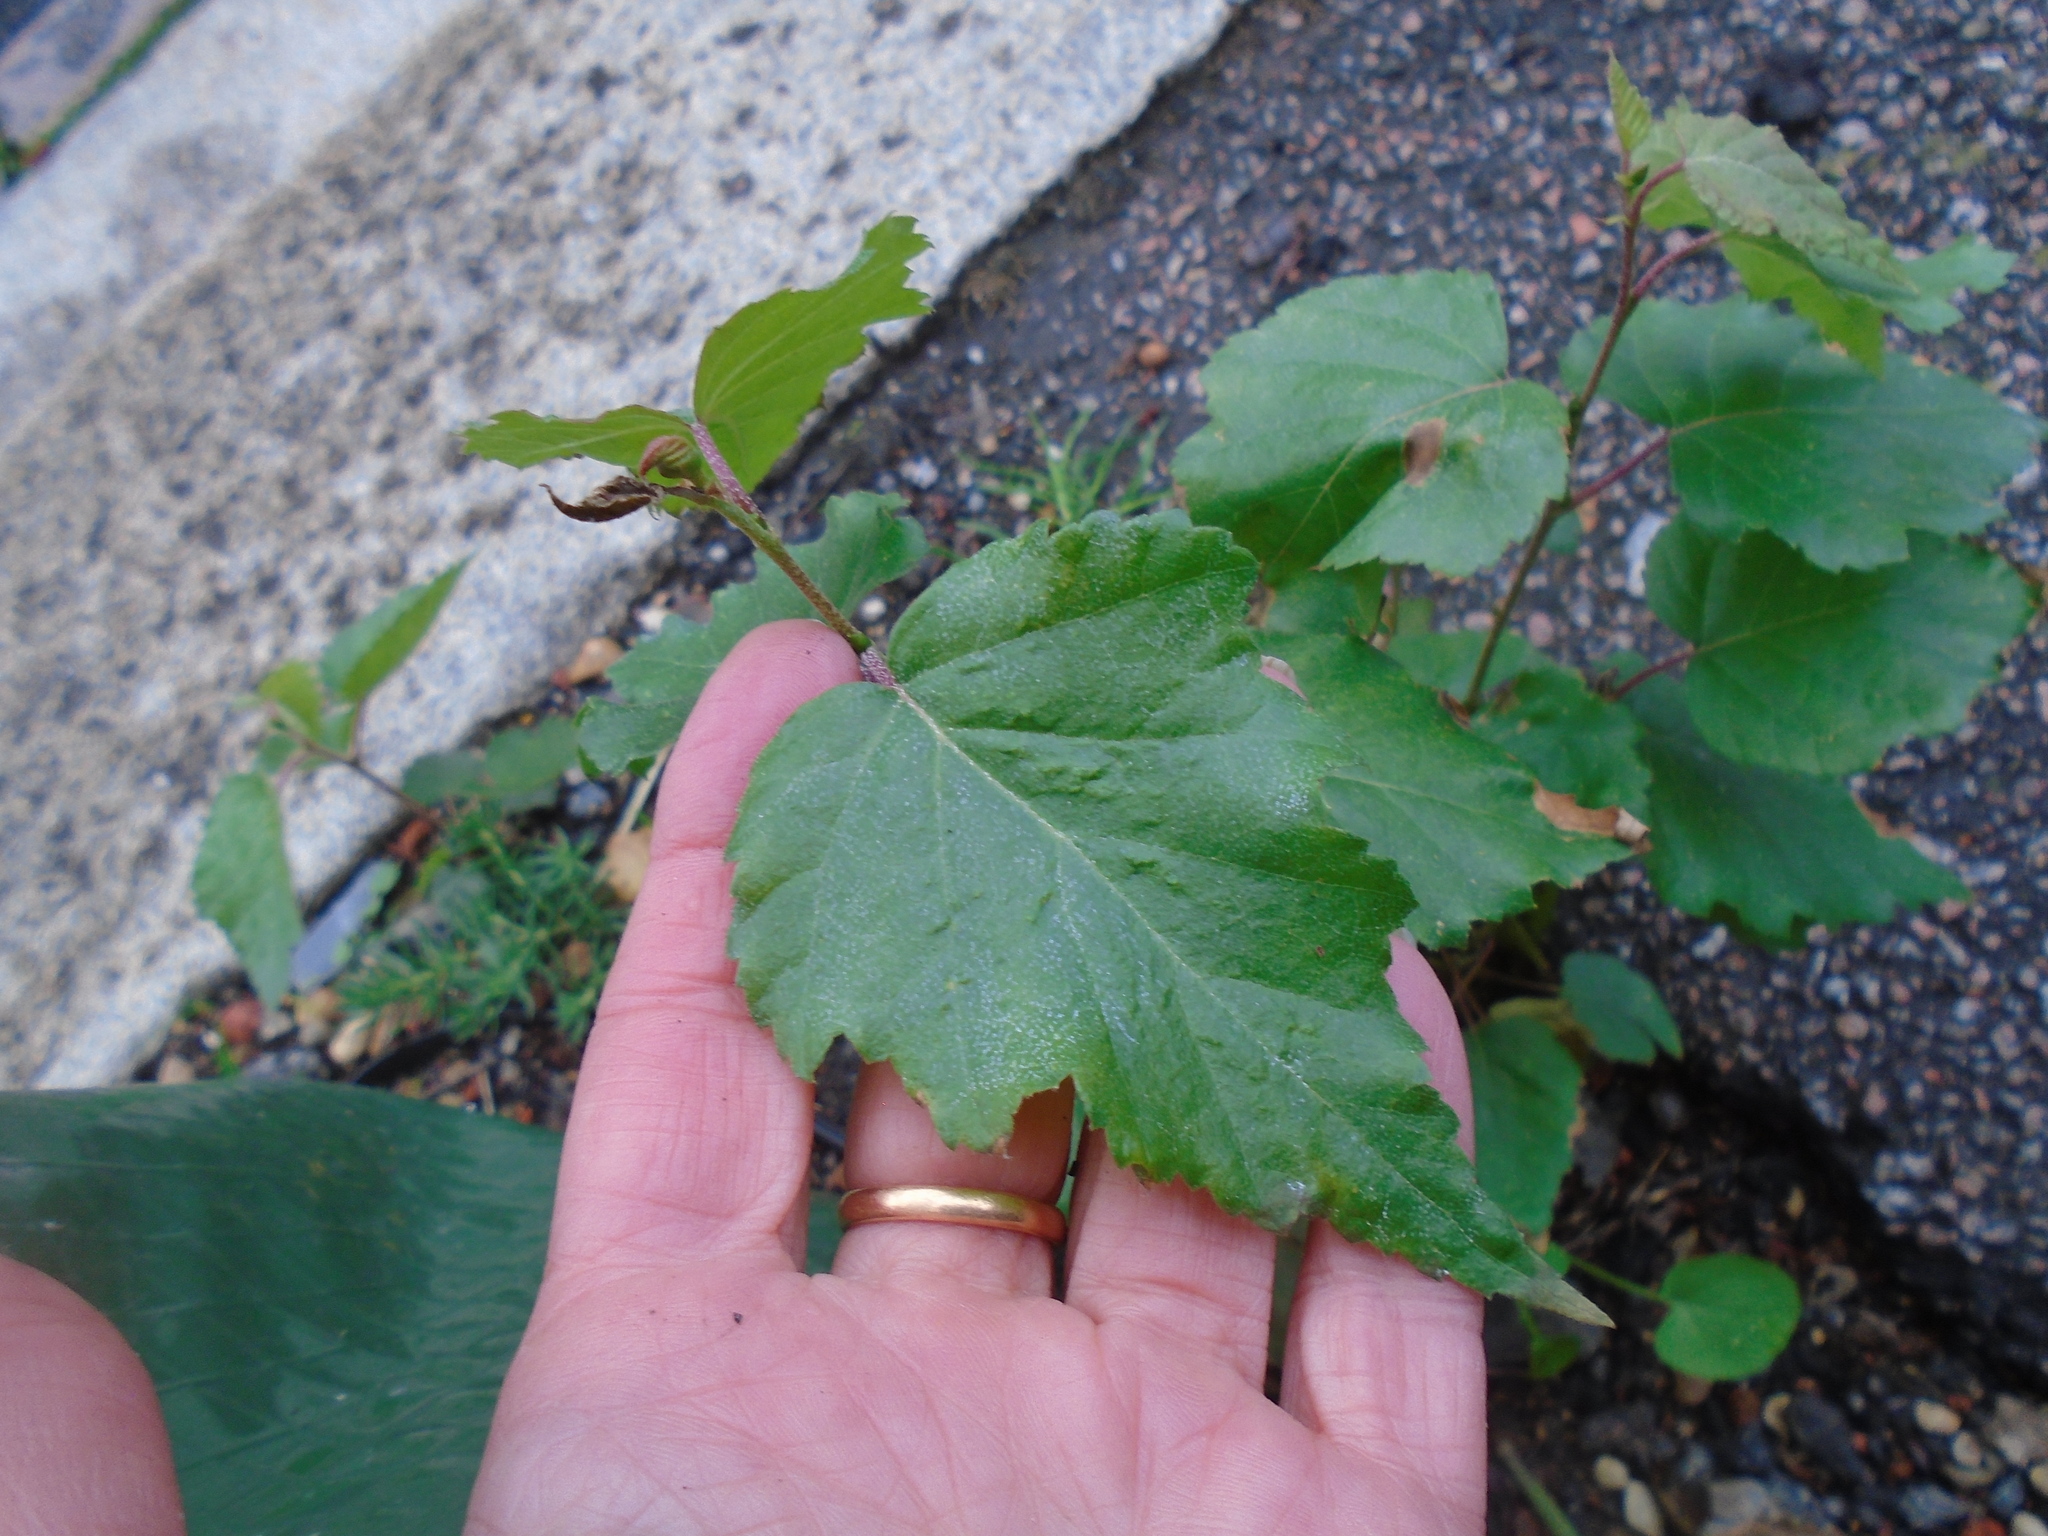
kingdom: Plantae
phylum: Tracheophyta
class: Magnoliopsida
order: Fagales
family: Betulaceae
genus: Betula
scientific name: Betula pendula
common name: Silver birch
